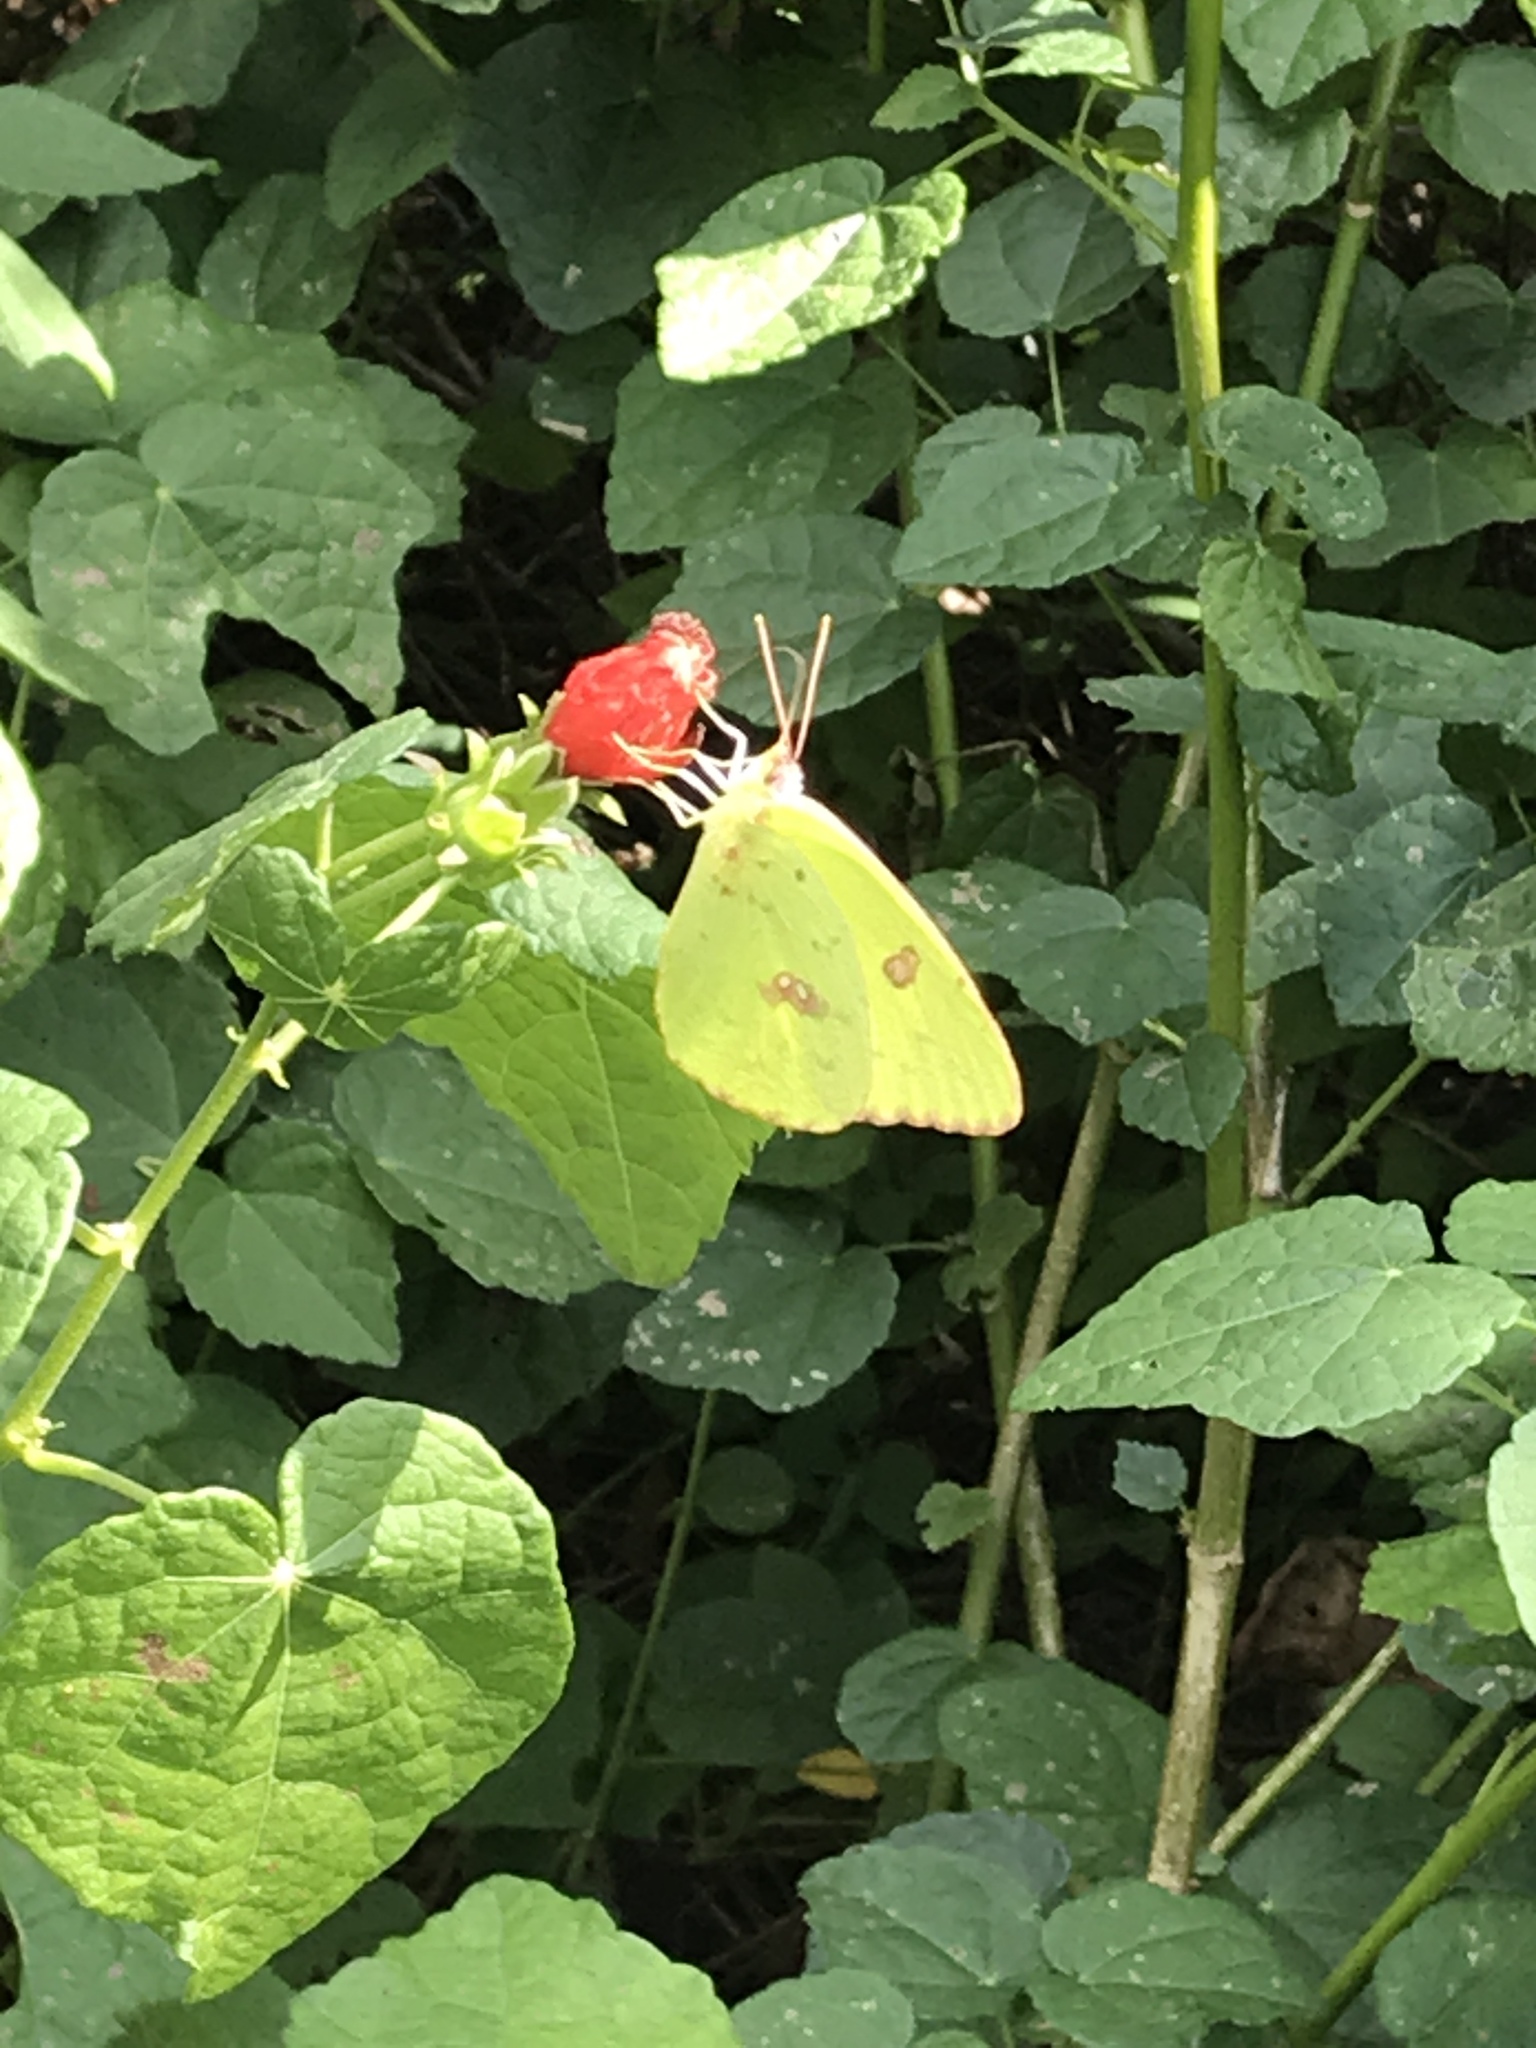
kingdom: Animalia
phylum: Arthropoda
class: Insecta
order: Lepidoptera
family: Pieridae
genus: Phoebis
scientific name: Phoebis sennae
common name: Cloudless sulphur
